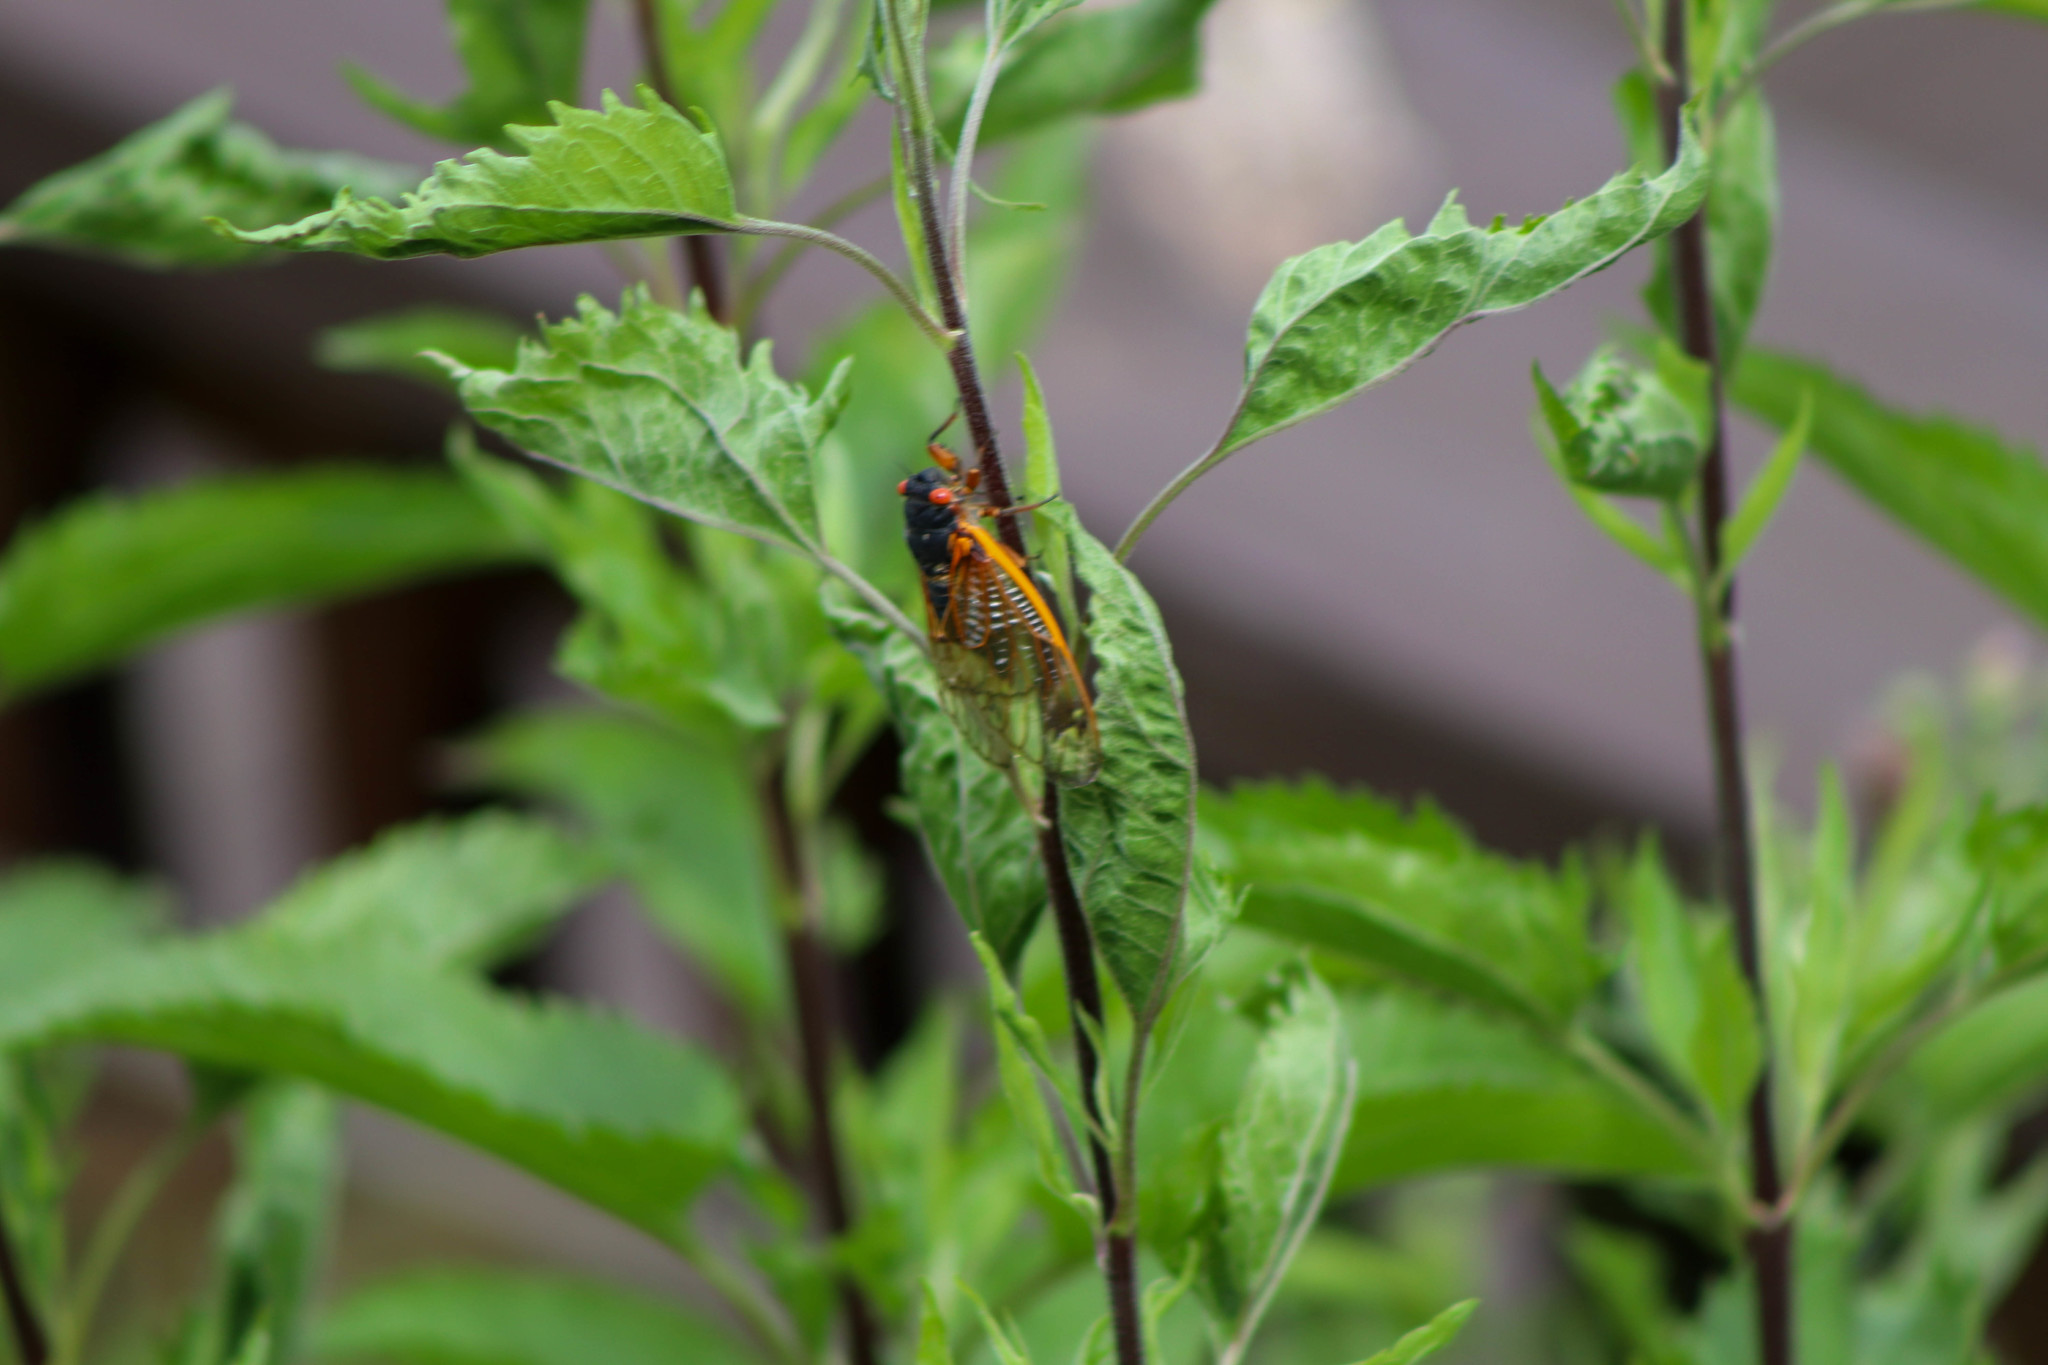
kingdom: Animalia
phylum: Arthropoda
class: Insecta
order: Hemiptera
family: Cicadidae
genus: Magicicada
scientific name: Magicicada septendecim
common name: Periodical cicada
